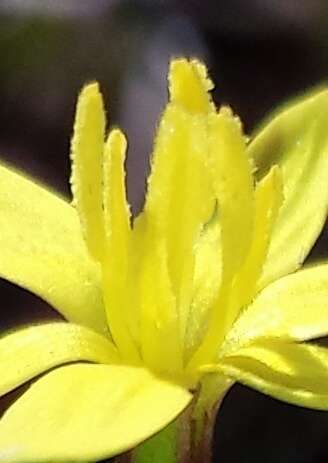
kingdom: Plantae
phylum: Tracheophyta
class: Liliopsida
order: Asparagales
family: Hypoxidaceae
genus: Pauridia
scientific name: Pauridia glabella
